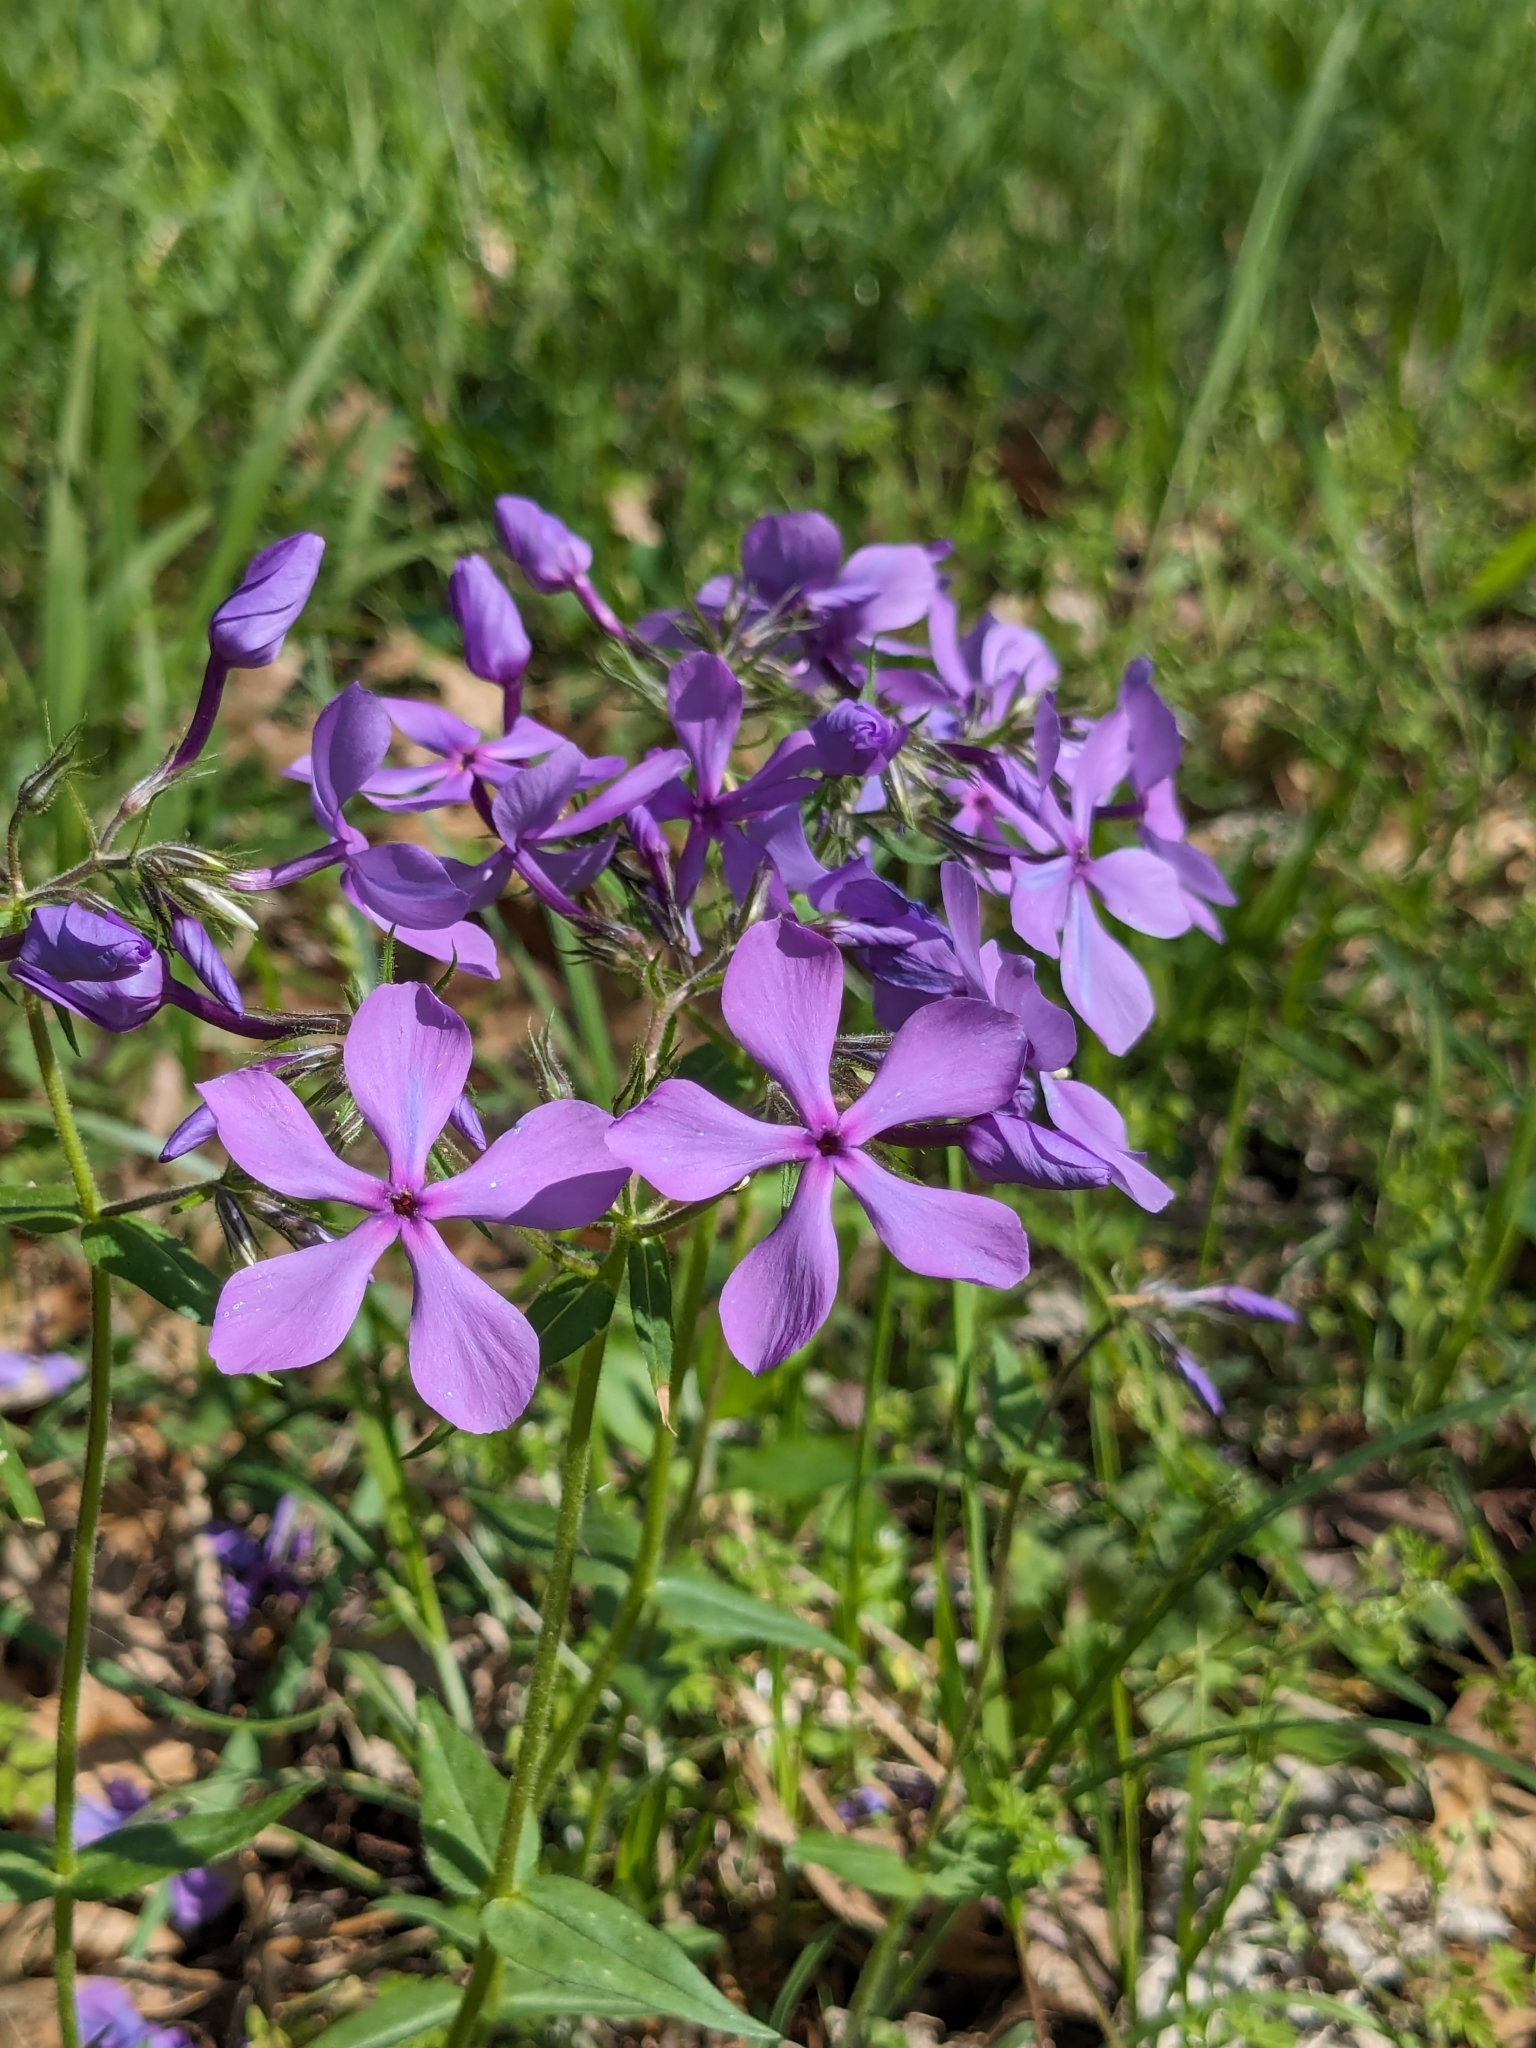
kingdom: Plantae
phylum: Tracheophyta
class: Magnoliopsida
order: Ericales
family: Polemoniaceae
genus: Phlox
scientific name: Phlox divaricata
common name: Blue phlox
